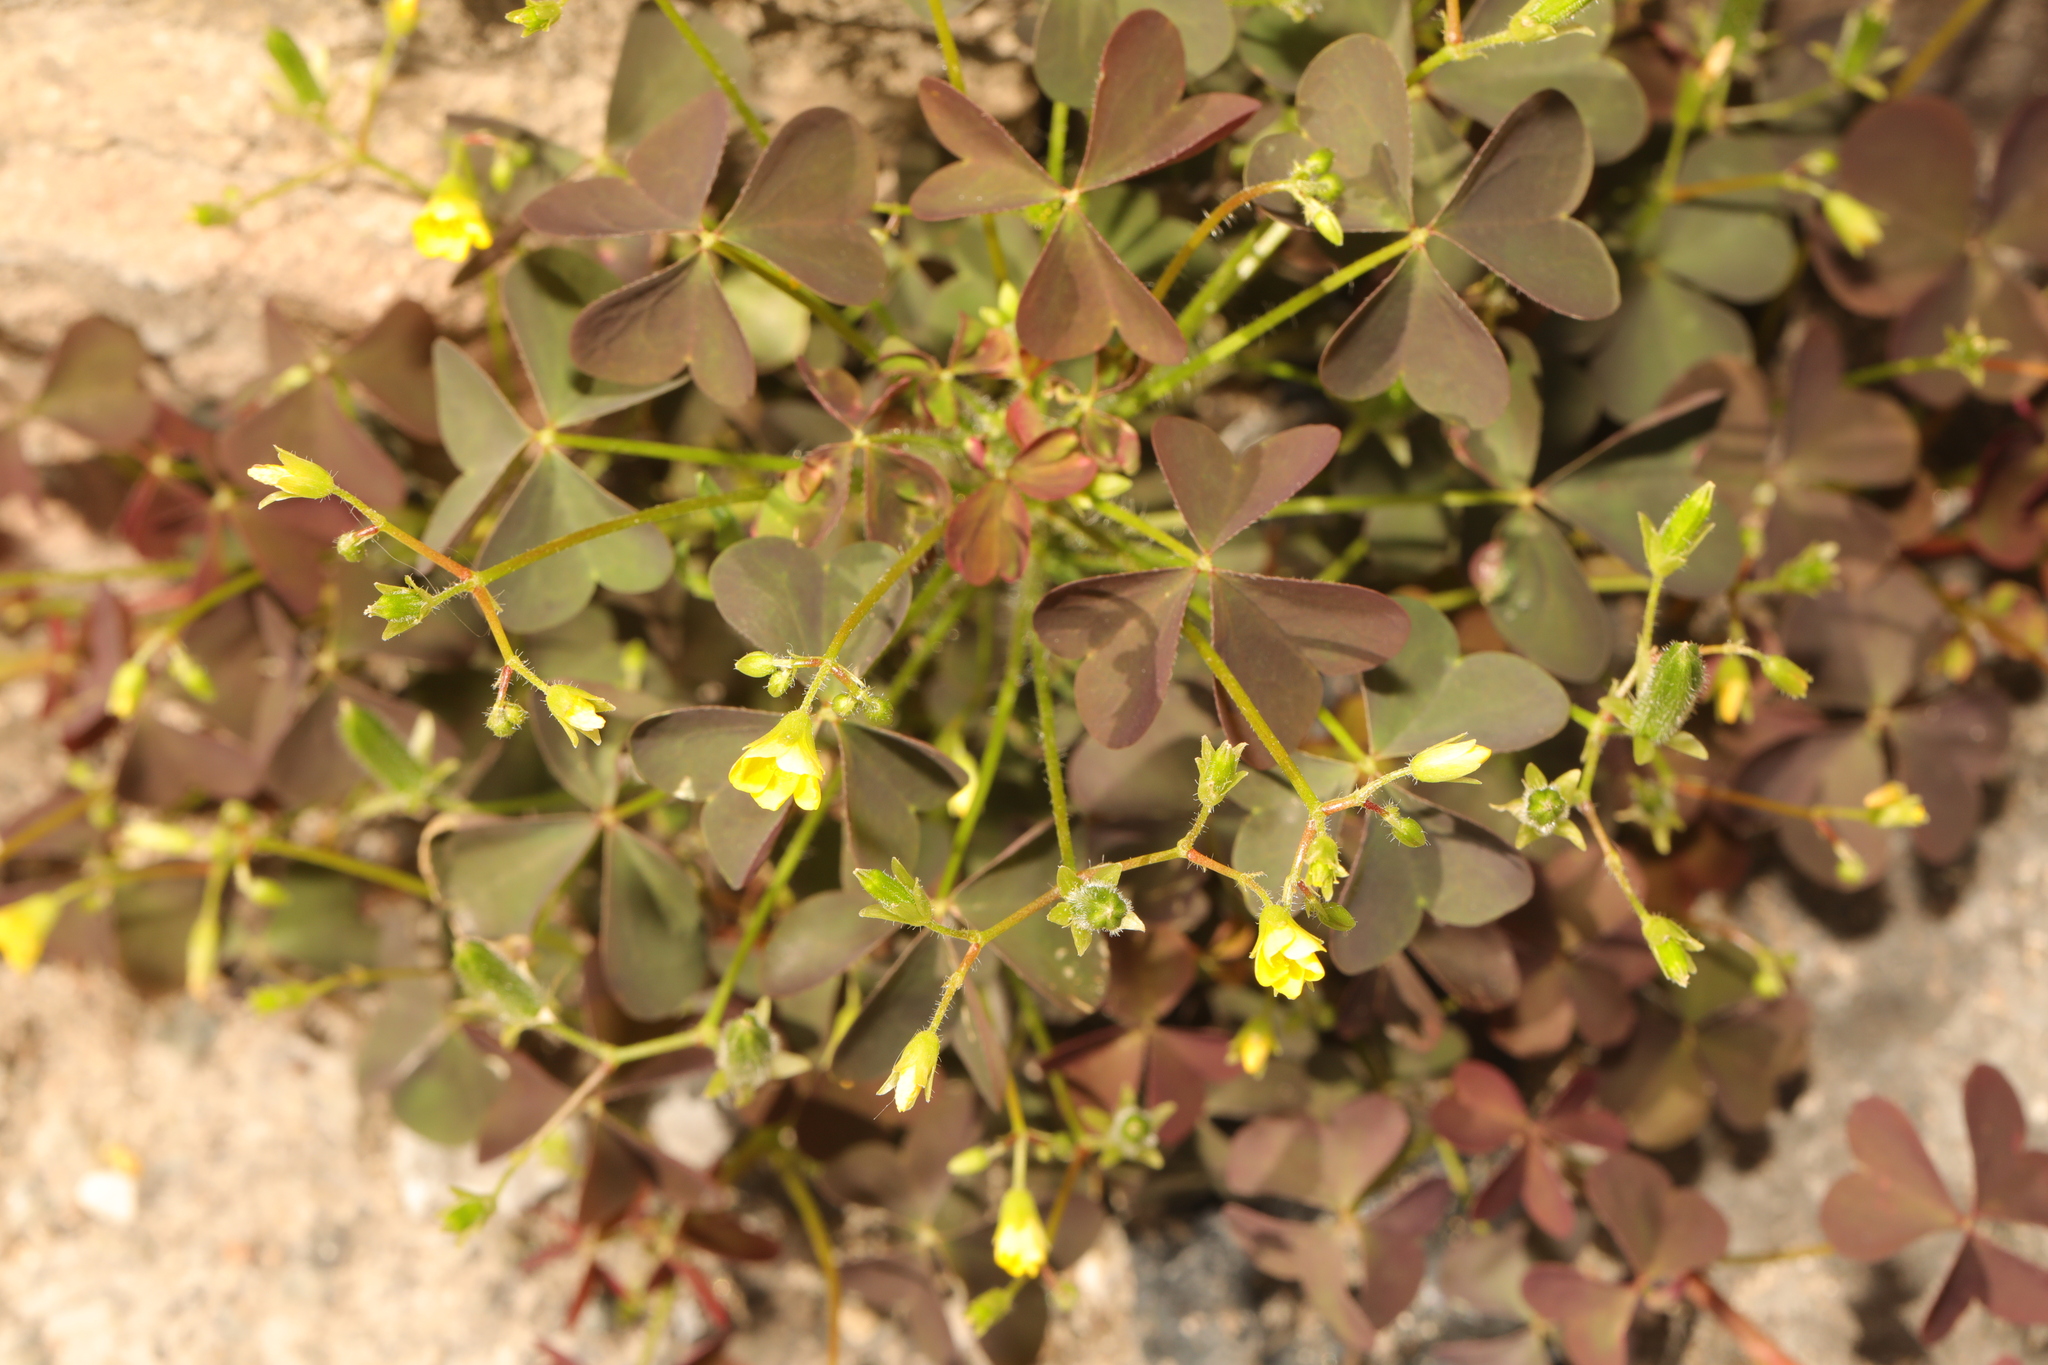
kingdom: Plantae
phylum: Tracheophyta
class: Magnoliopsida
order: Oxalidales
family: Oxalidaceae
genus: Oxalis
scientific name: Oxalis corniculata
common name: Procumbent yellow-sorrel
